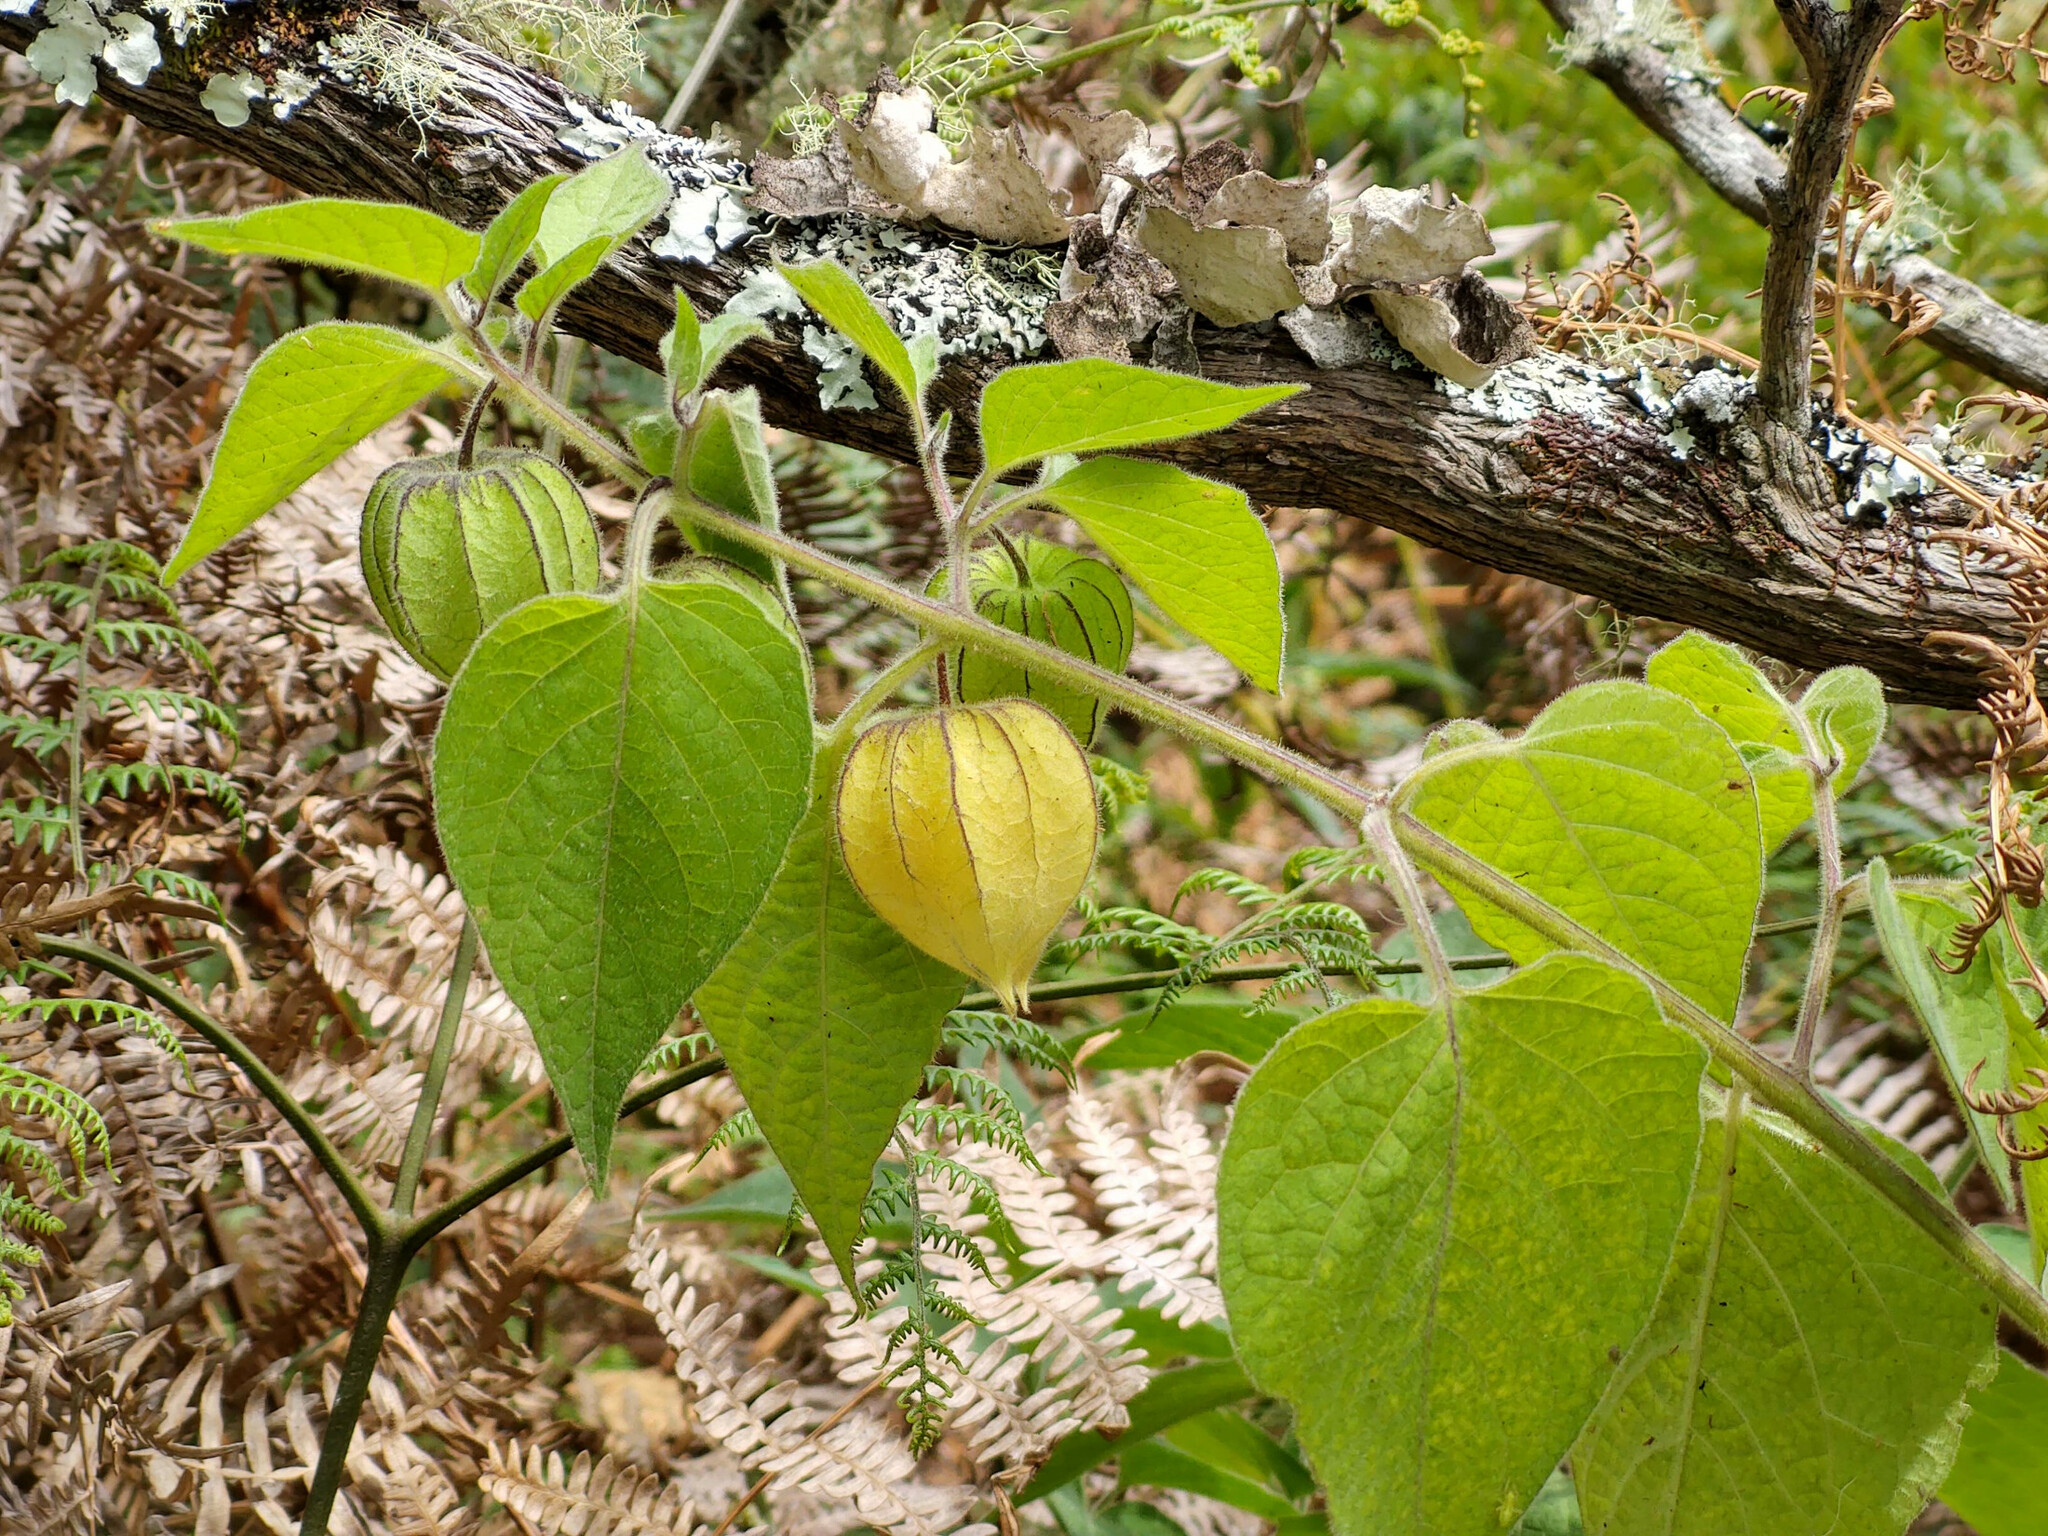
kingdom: Plantae
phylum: Tracheophyta
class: Magnoliopsida
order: Solanales
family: Solanaceae
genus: Physalis
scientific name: Physalis peruviana
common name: Cape-gooseberry
